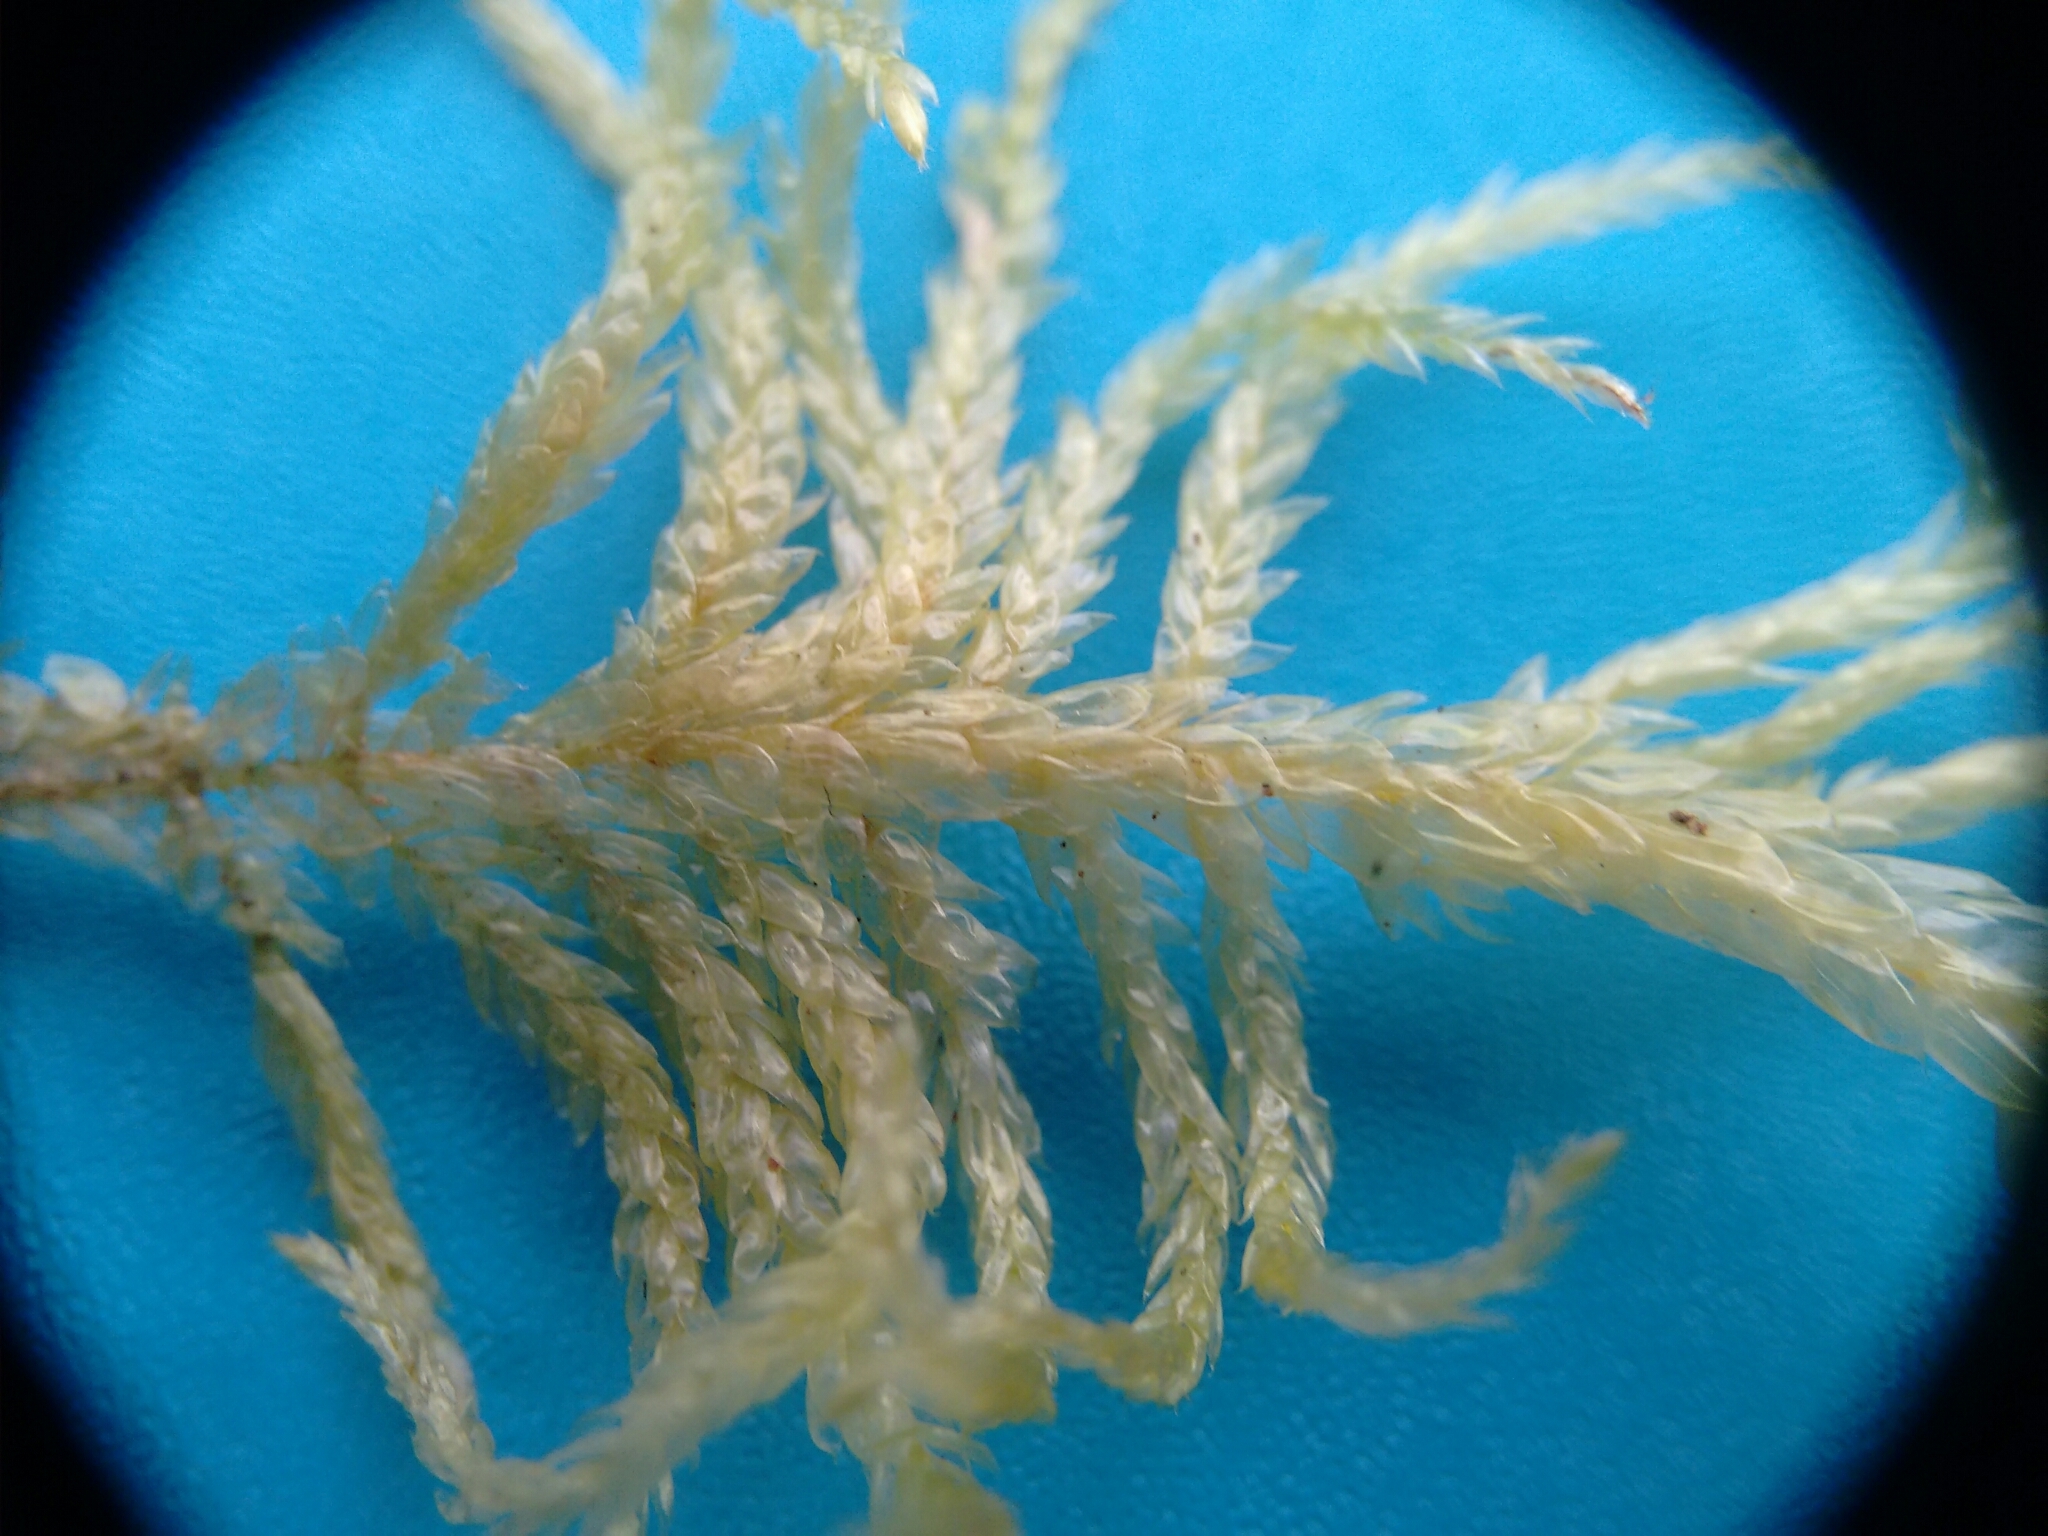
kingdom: Plantae
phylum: Bryophyta
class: Bryopsida
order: Hypnales
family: Brachytheciaceae
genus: Pseudoscleropodium
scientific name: Pseudoscleropodium purum
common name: Neat feather-moss
